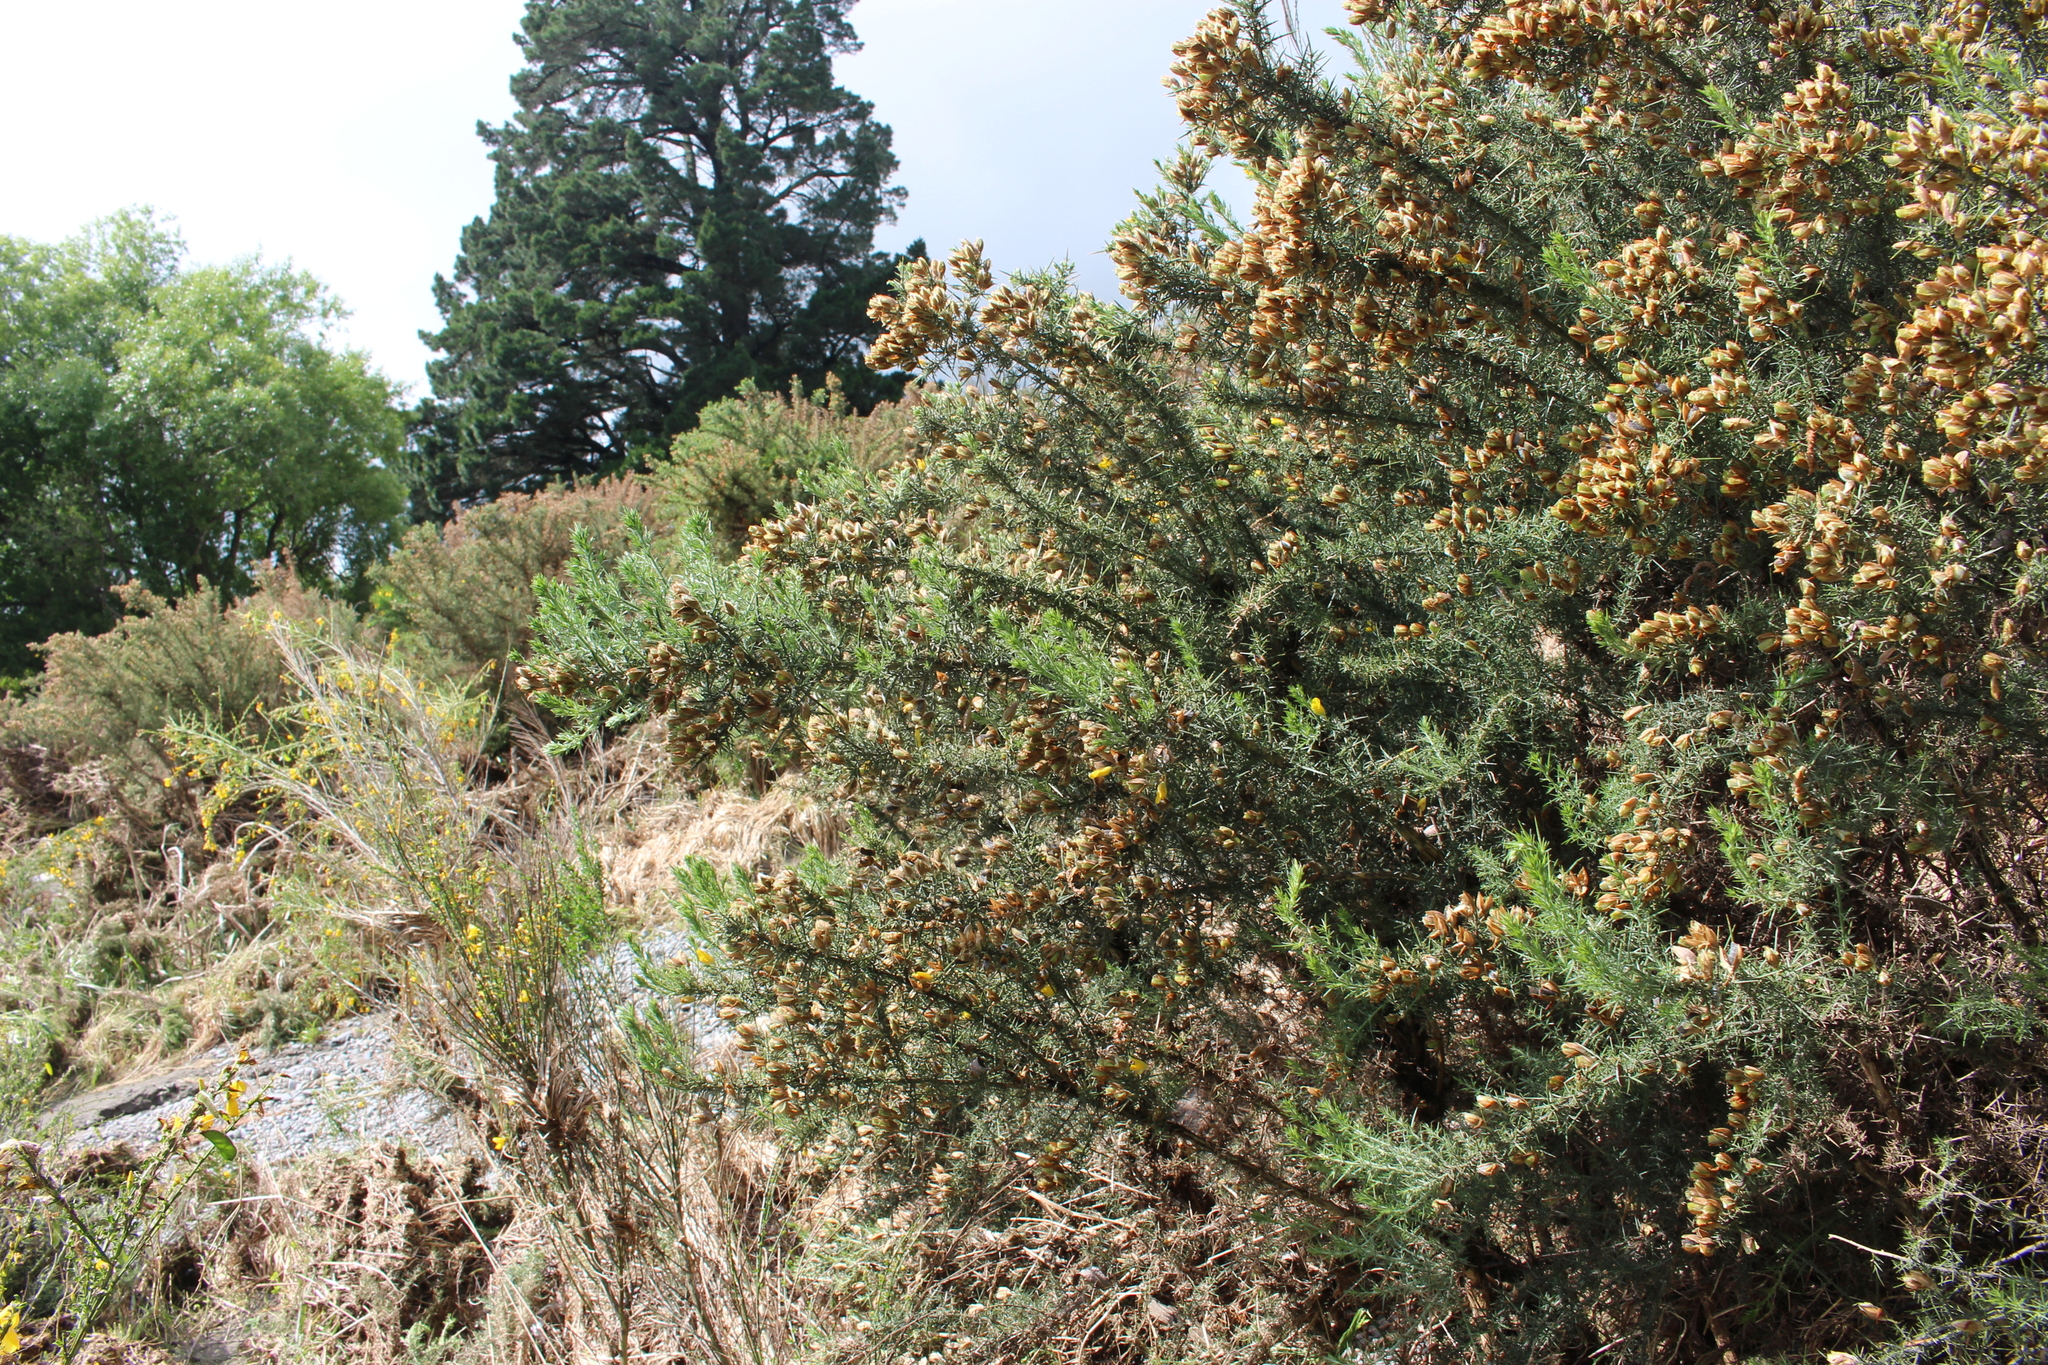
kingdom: Plantae
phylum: Tracheophyta
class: Magnoliopsida
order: Fabales
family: Fabaceae
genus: Ulex
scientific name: Ulex europaeus
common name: Common gorse
